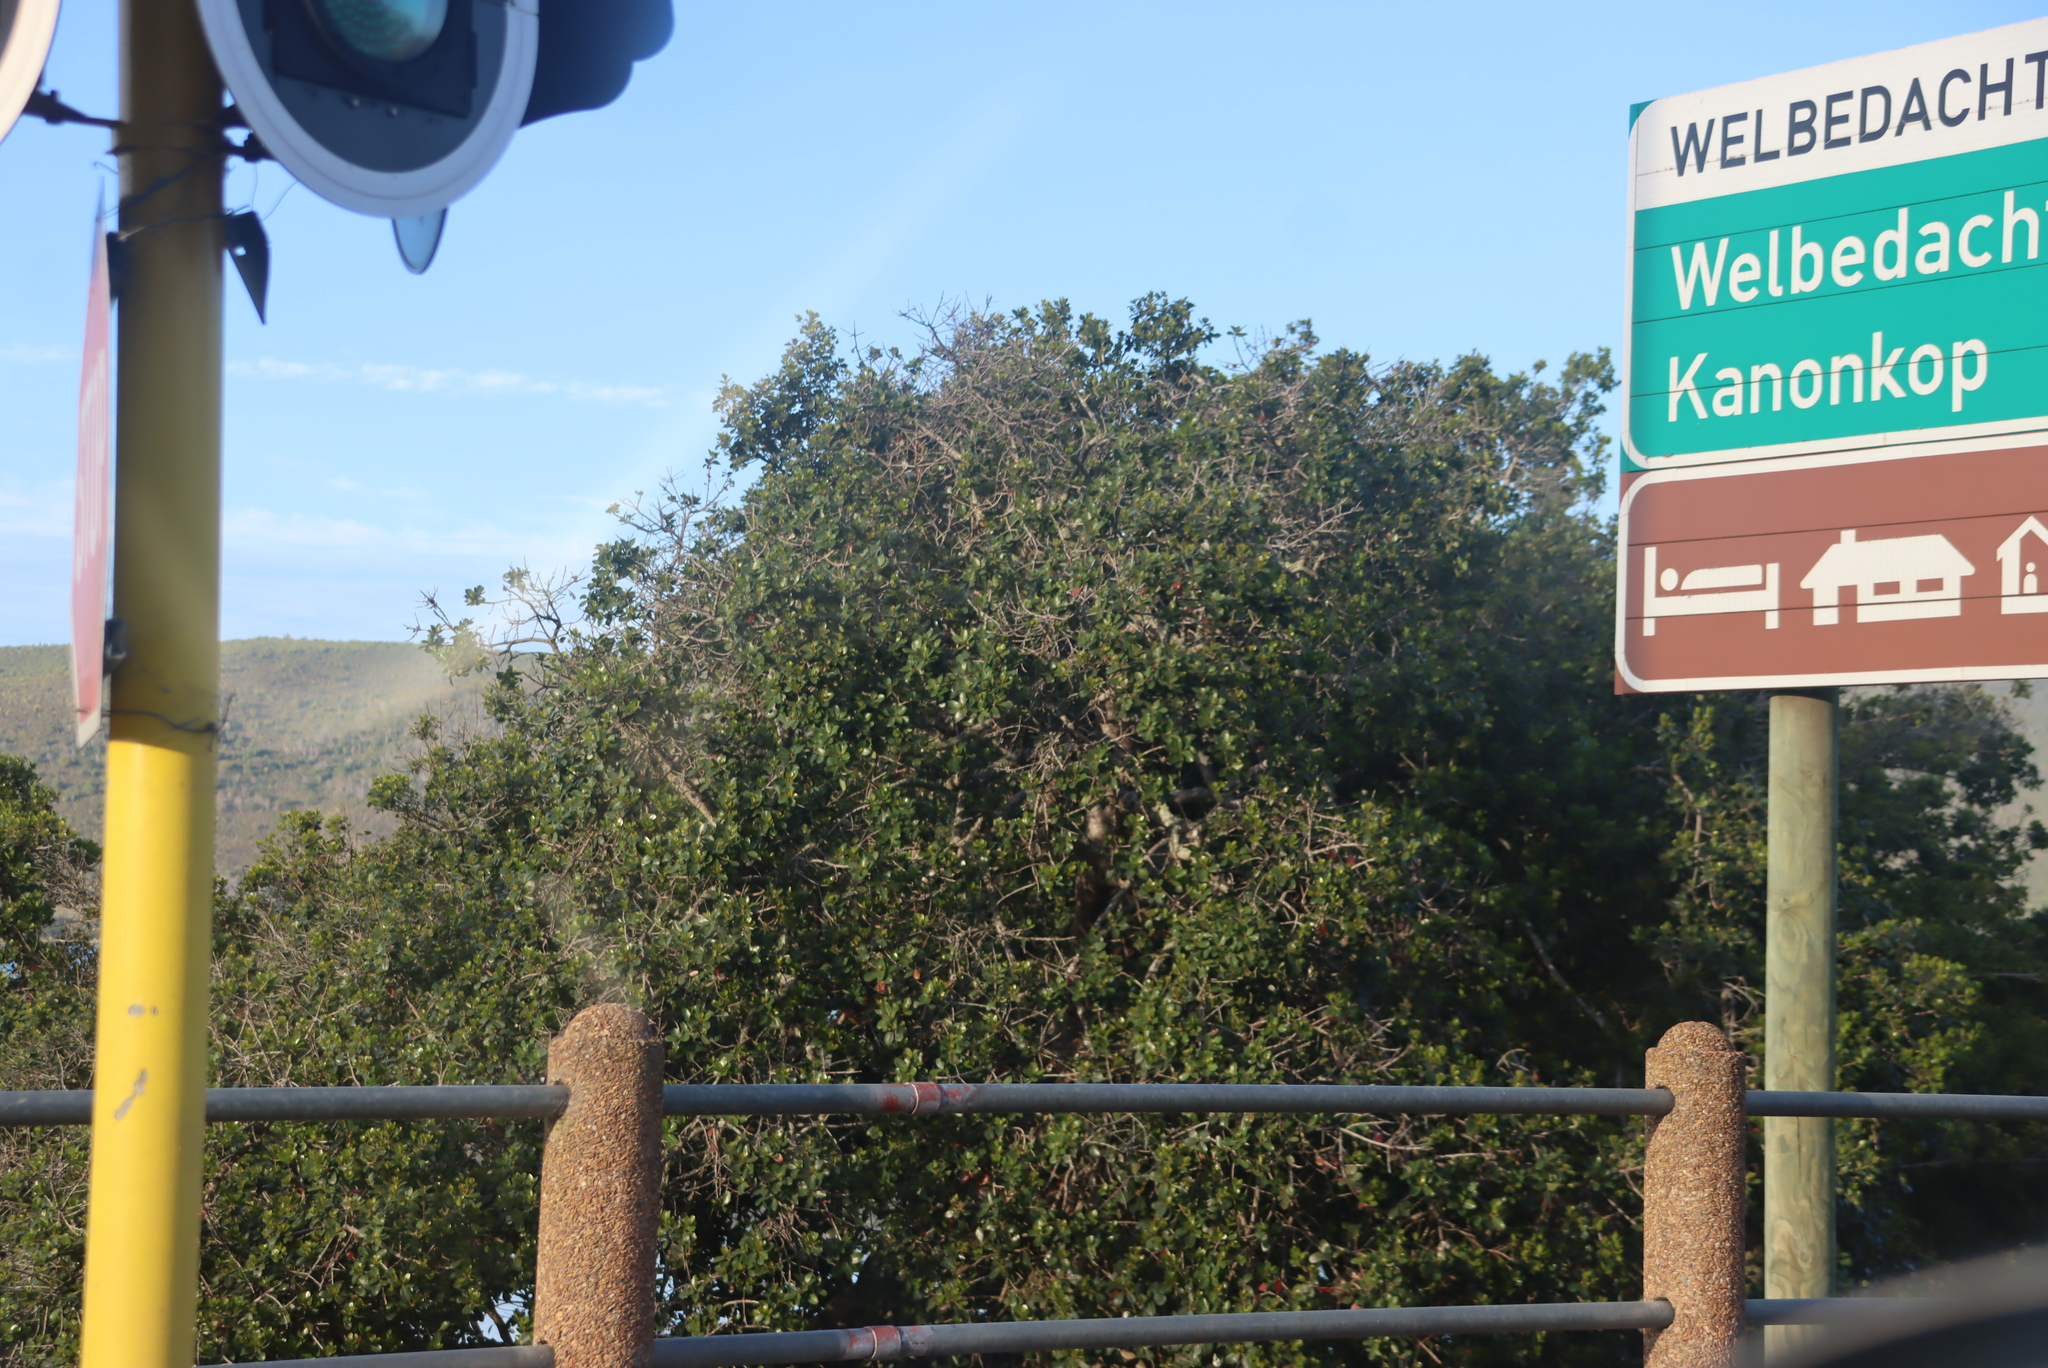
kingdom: Plantae
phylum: Tracheophyta
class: Magnoliopsida
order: Ericales
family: Sapotaceae
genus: Sideroxylon
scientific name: Sideroxylon inerme
